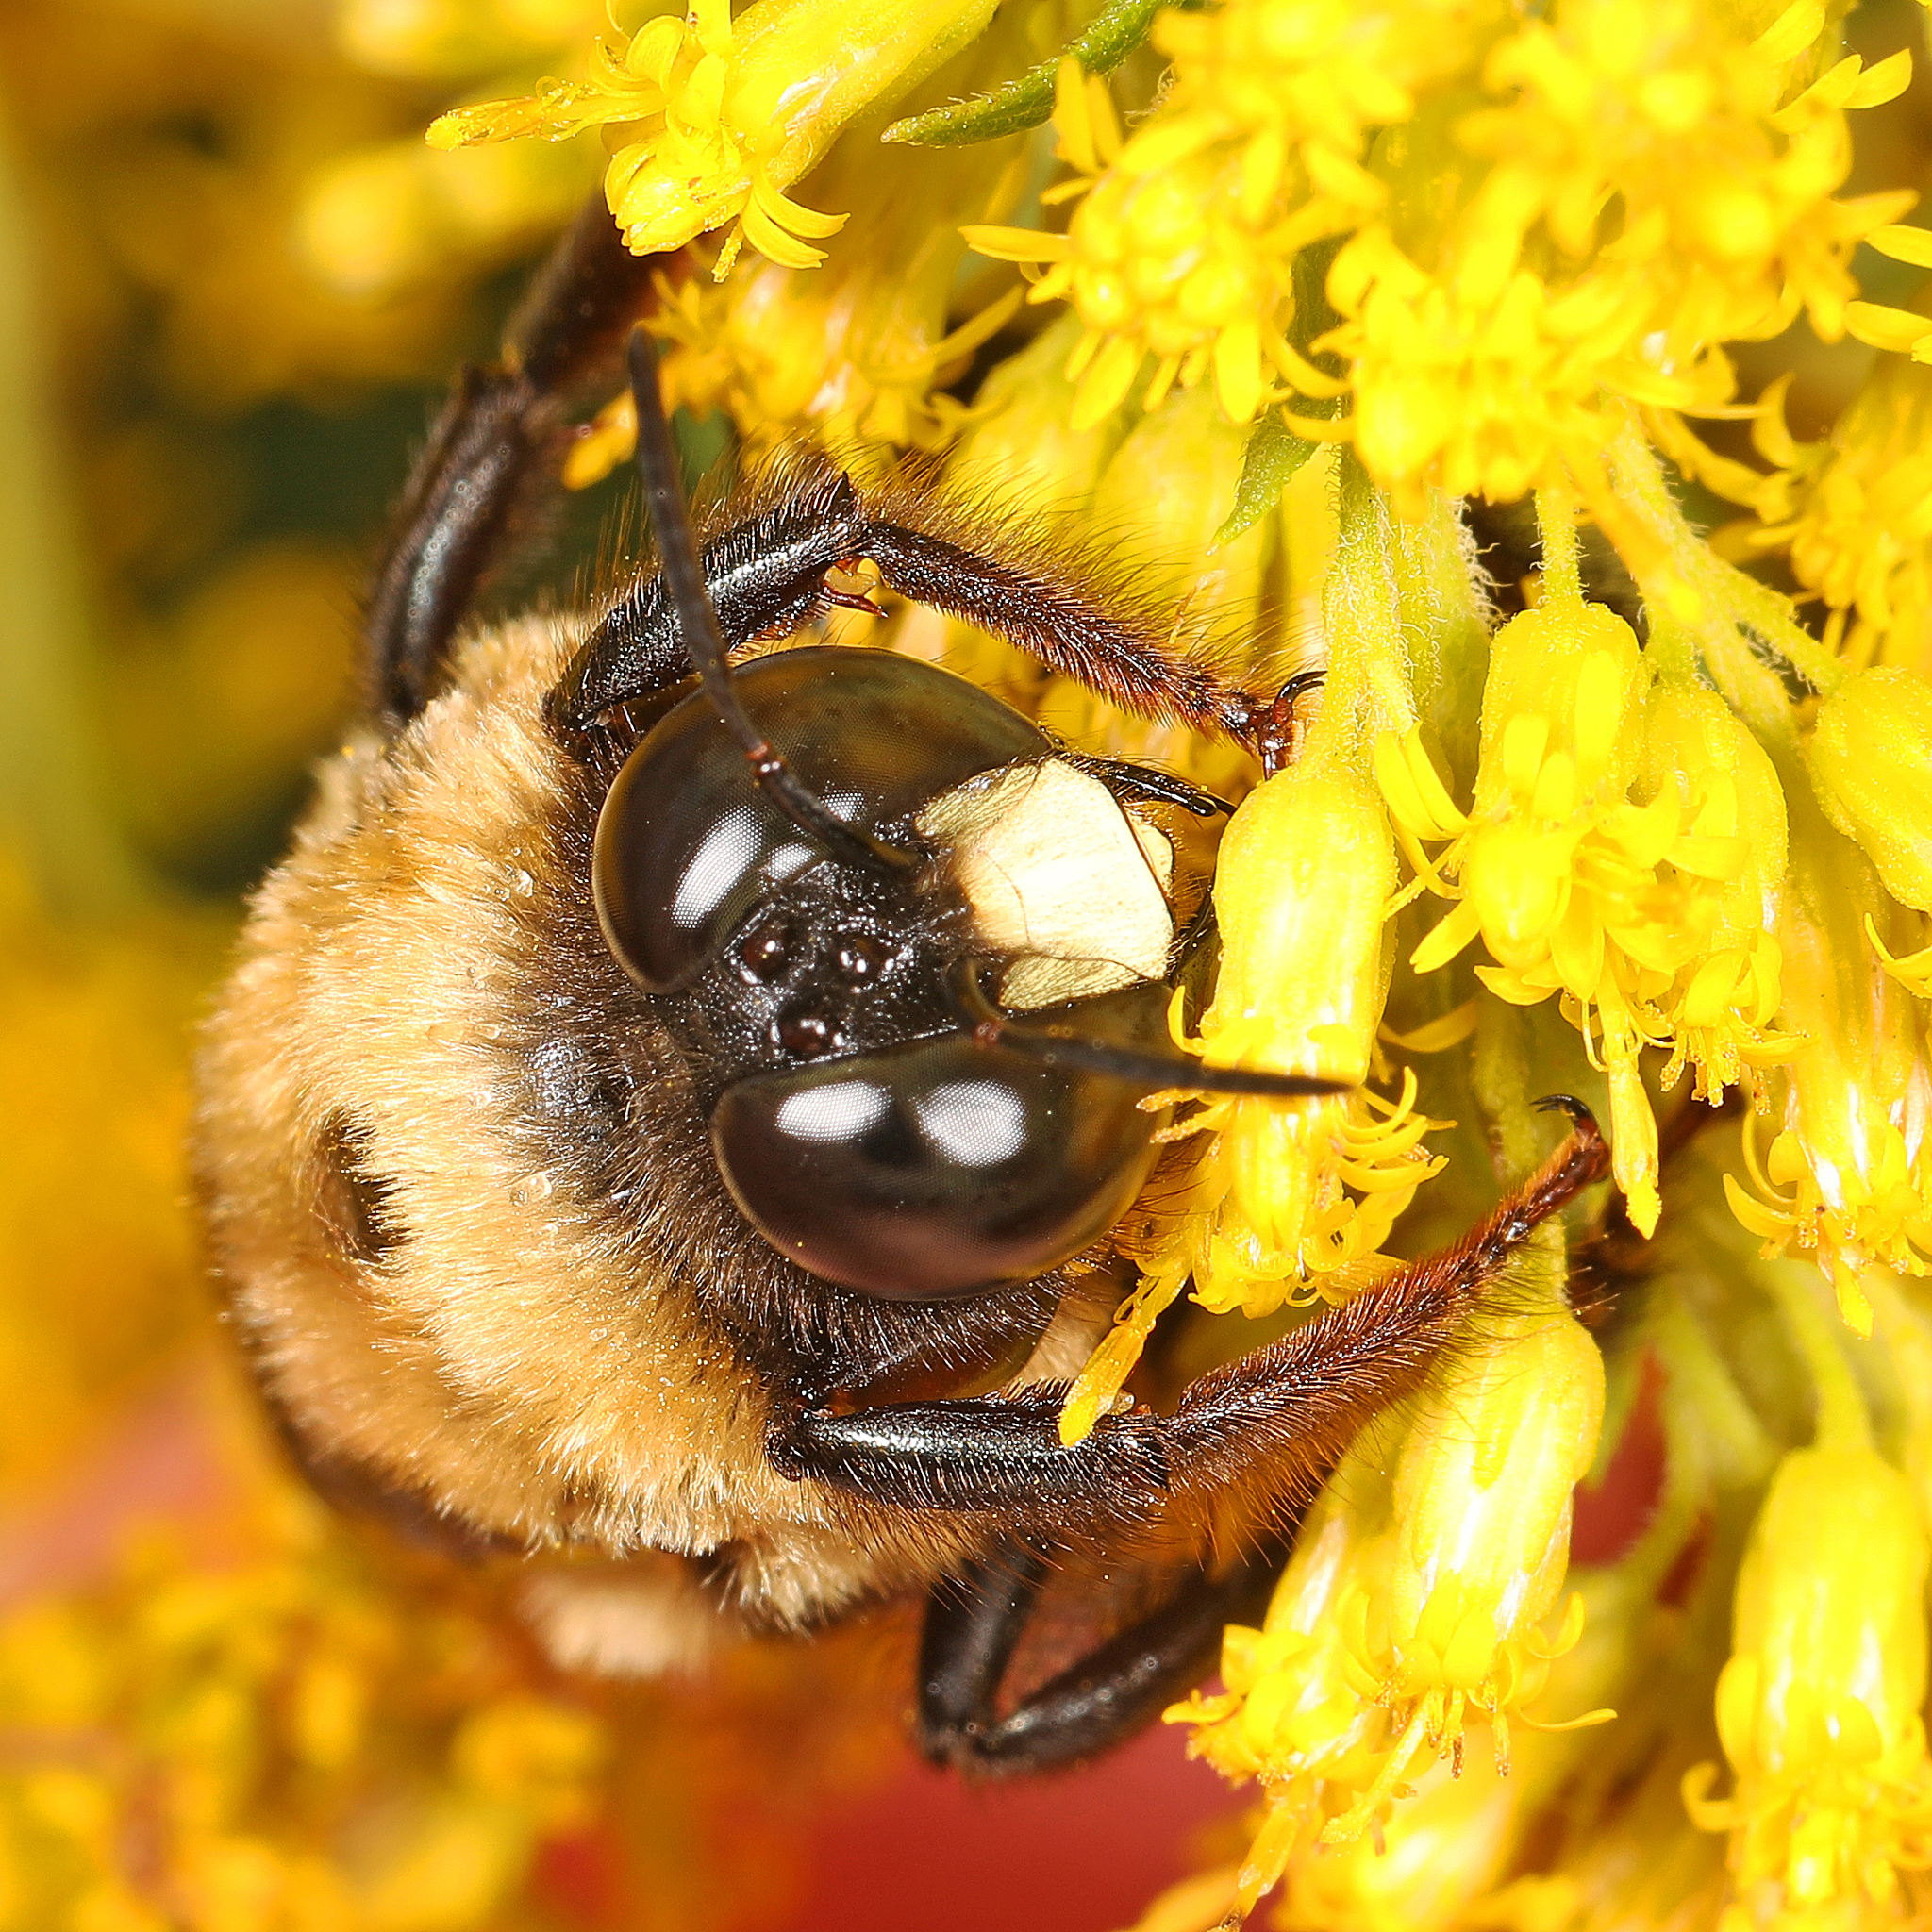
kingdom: Animalia
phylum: Arthropoda
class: Insecta
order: Hymenoptera
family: Apidae
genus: Xylocopa
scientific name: Xylocopa virginica
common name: Carpenter bee
